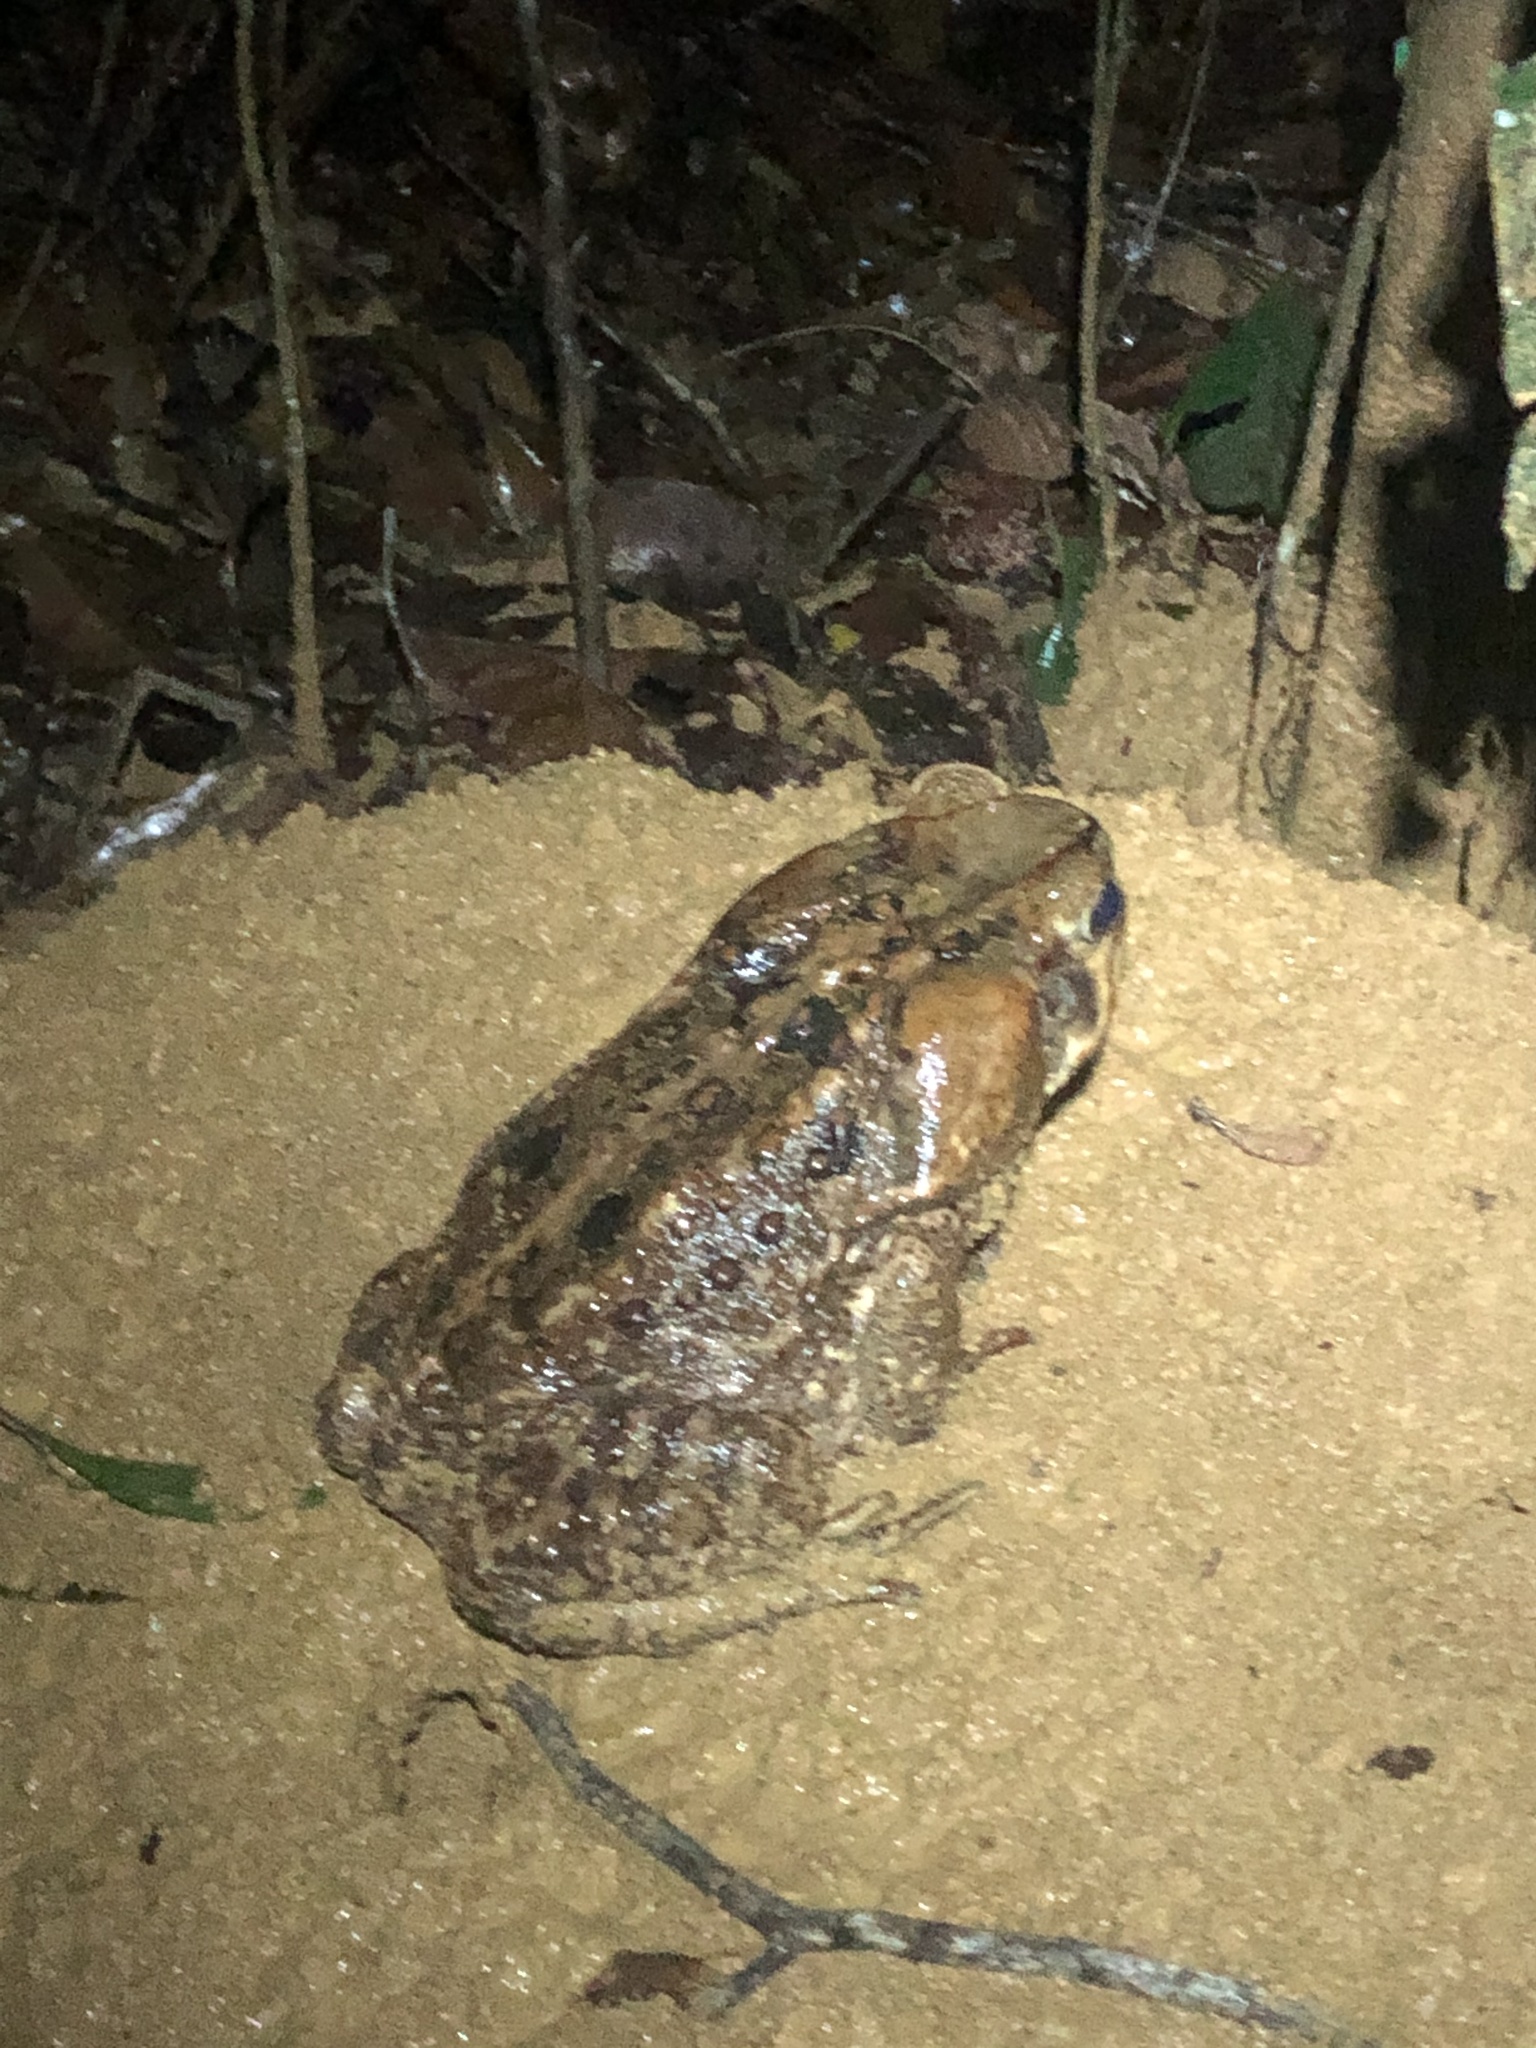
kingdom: Animalia
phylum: Chordata
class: Amphibia
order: Anura
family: Bufonidae
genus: Rhinella
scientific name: Rhinella marina
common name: Cane toad
